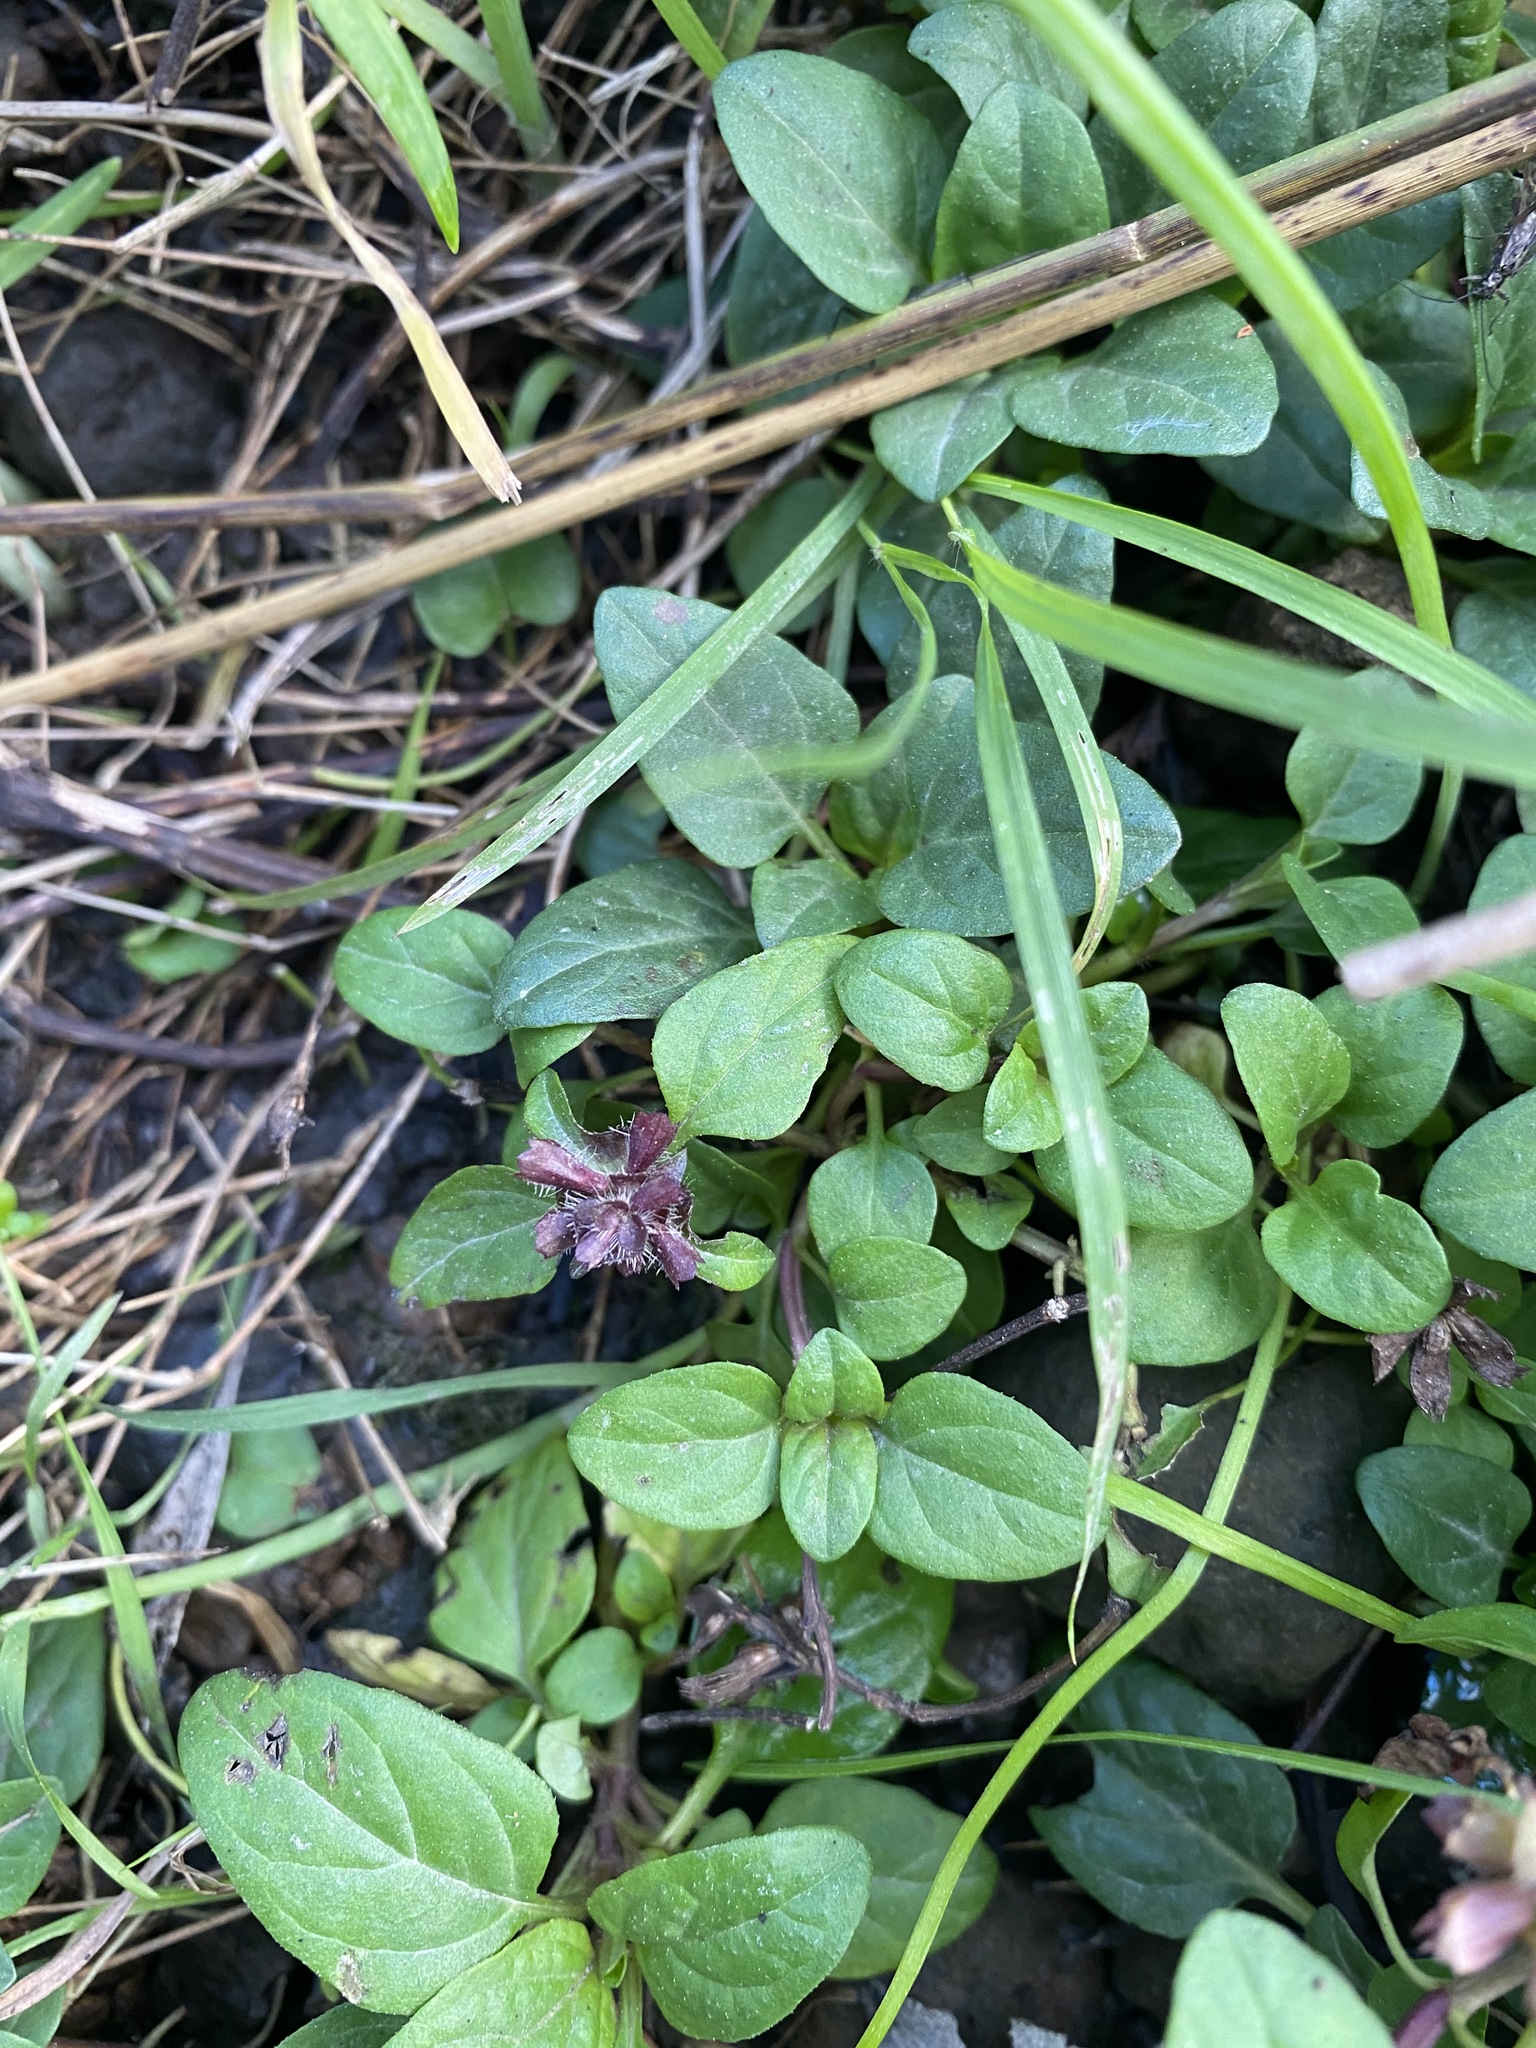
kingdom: Plantae
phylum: Tracheophyta
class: Magnoliopsida
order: Lamiales
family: Lamiaceae
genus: Prunella
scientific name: Prunella vulgaris
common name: Heal-all
